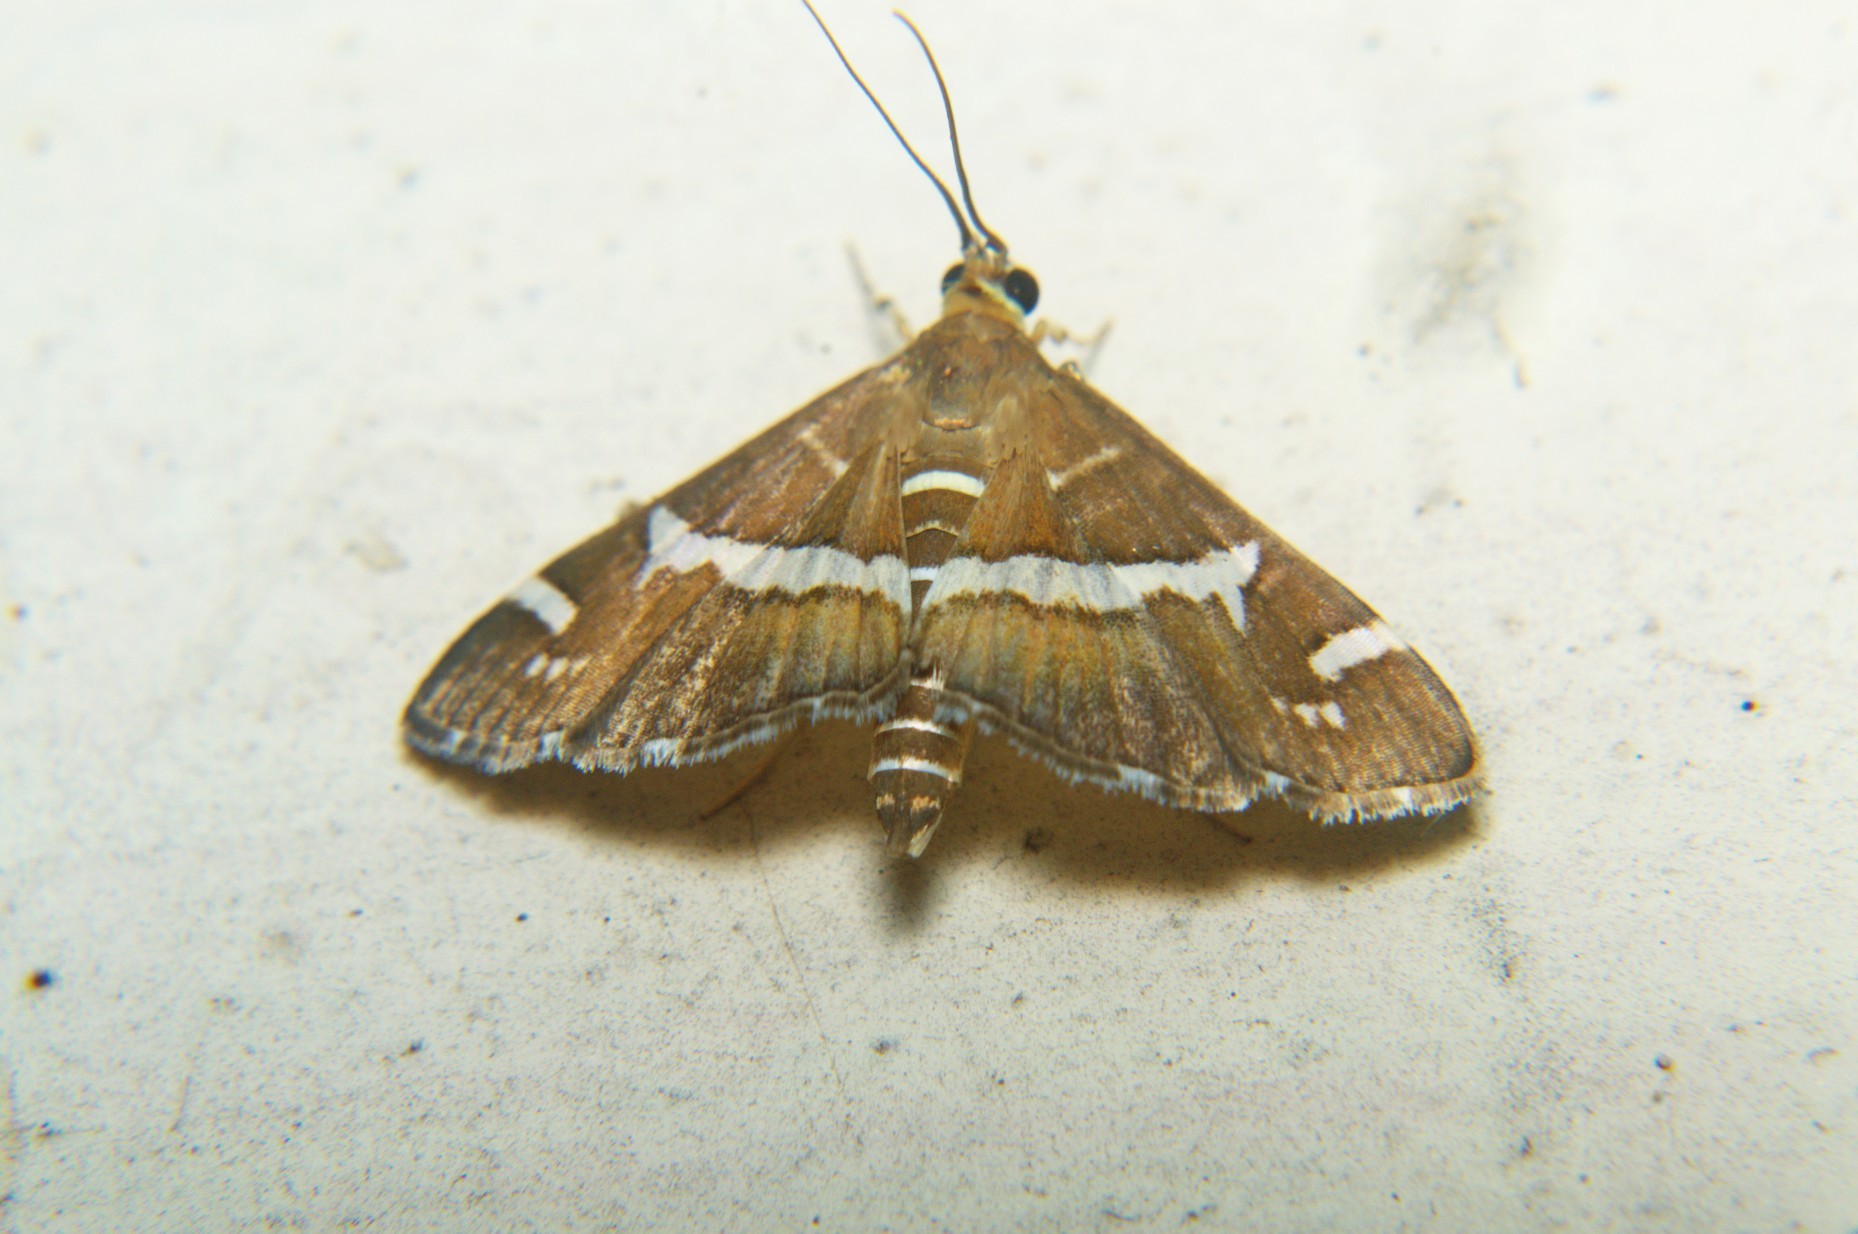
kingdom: Animalia
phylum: Arthropoda
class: Insecta
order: Lepidoptera
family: Crambidae
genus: Spoladea
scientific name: Spoladea recurvalis
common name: Beet webworm moth
